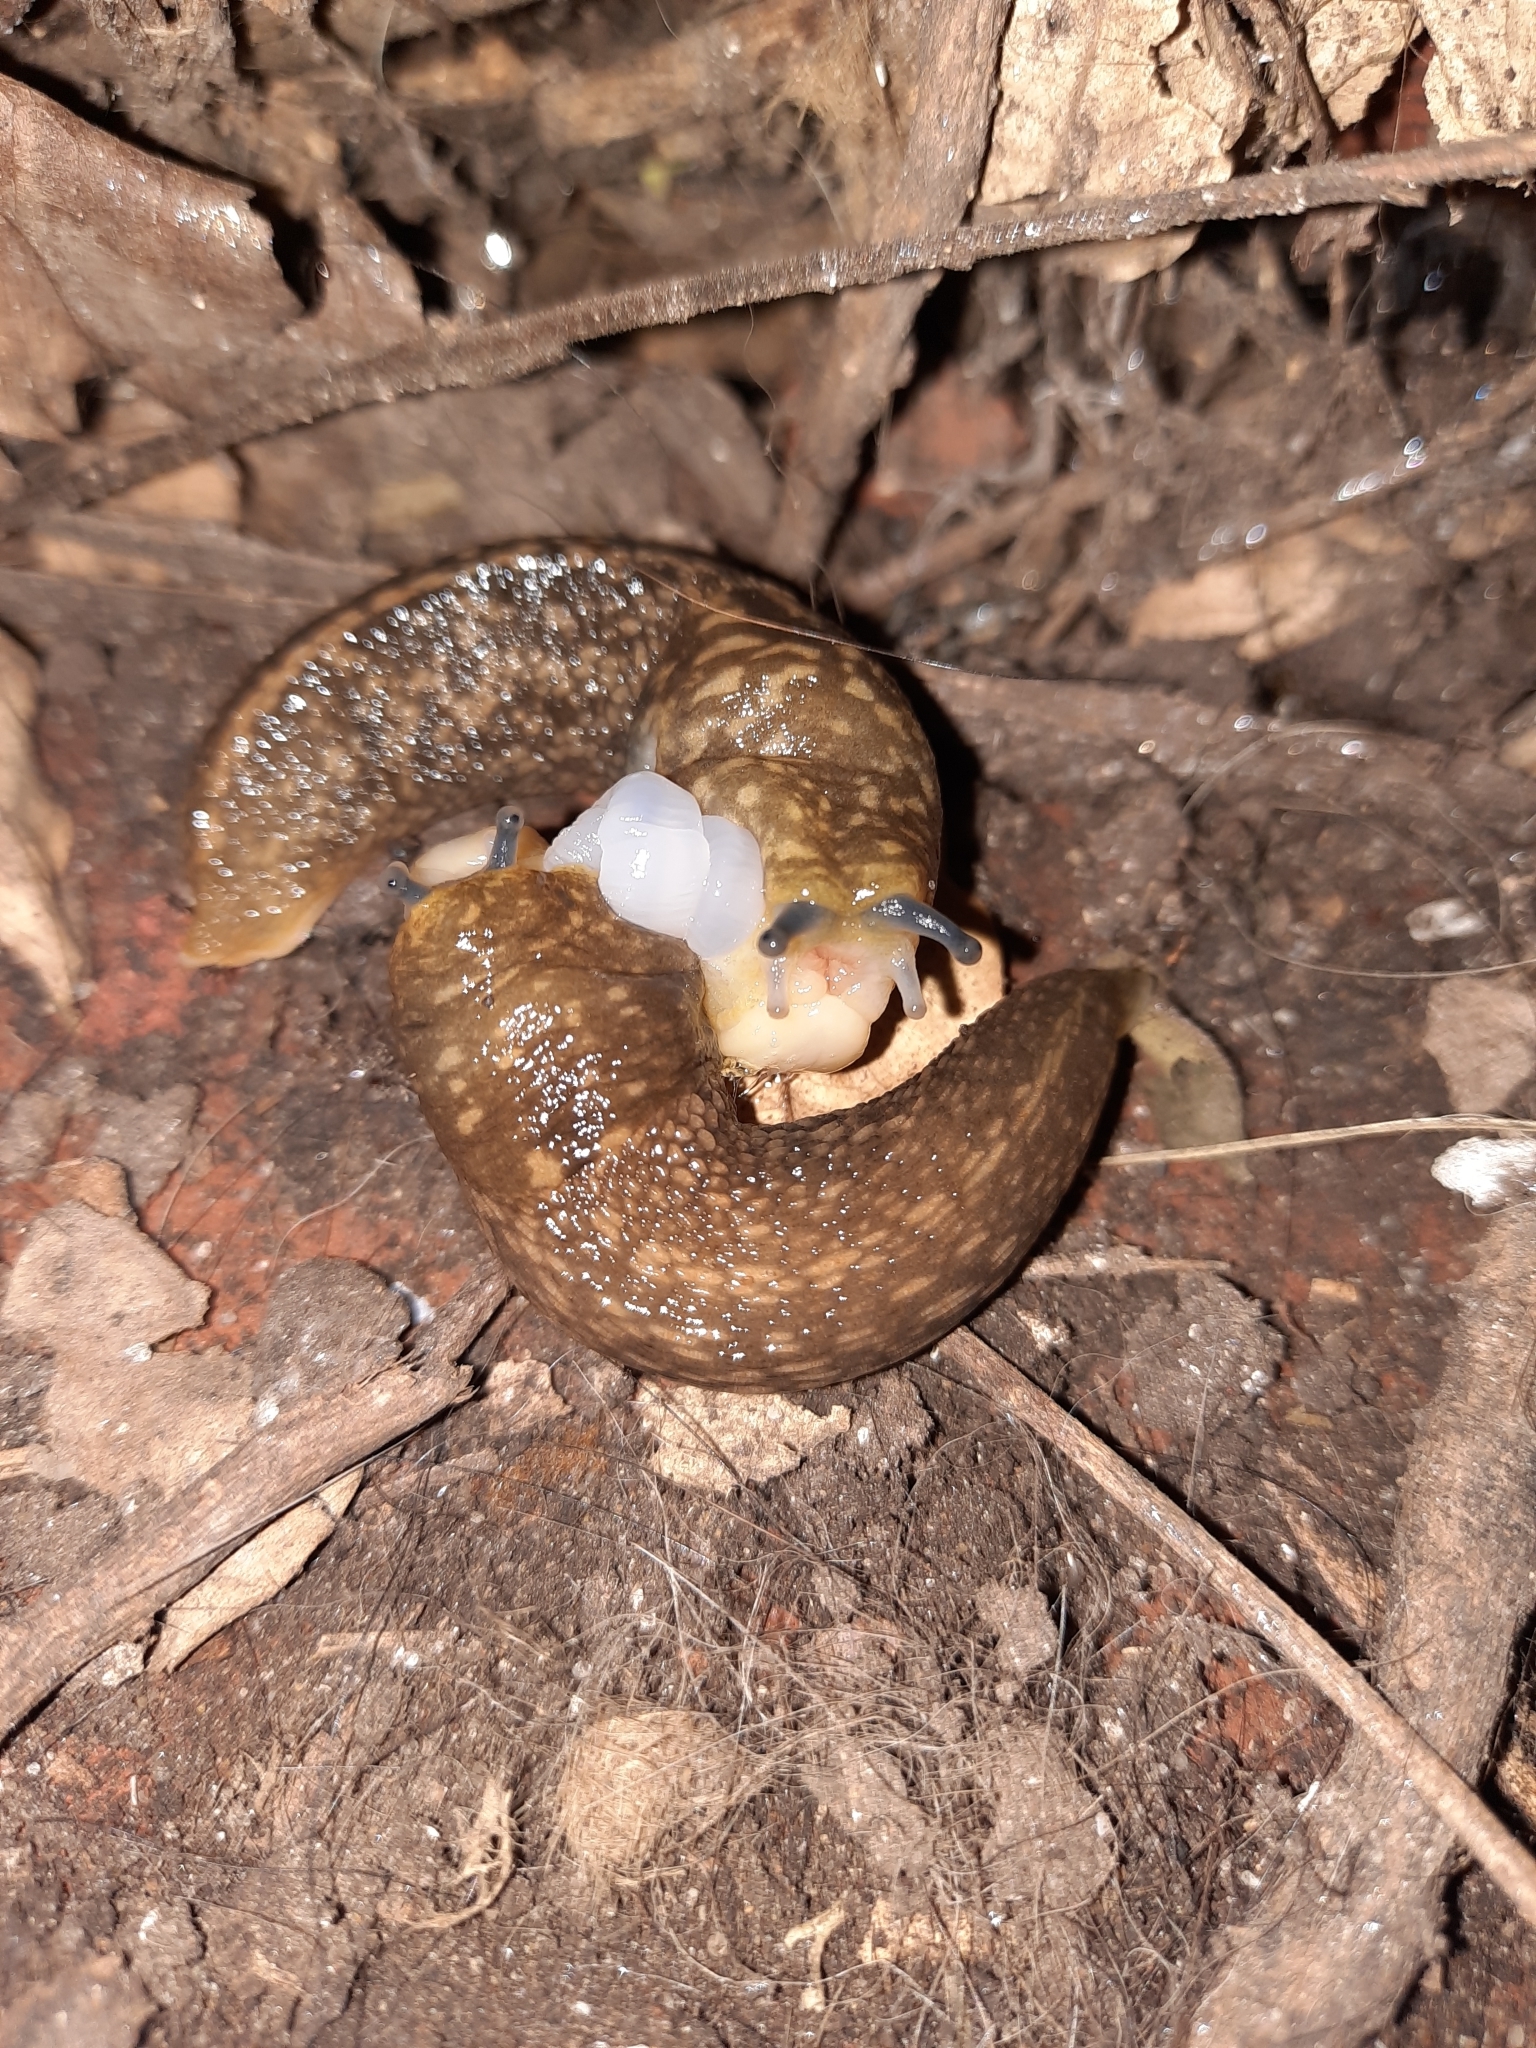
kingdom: Animalia
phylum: Mollusca
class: Gastropoda
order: Stylommatophora
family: Limacidae
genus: Limacus
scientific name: Limacus flavus
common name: Yellow gardenslug
